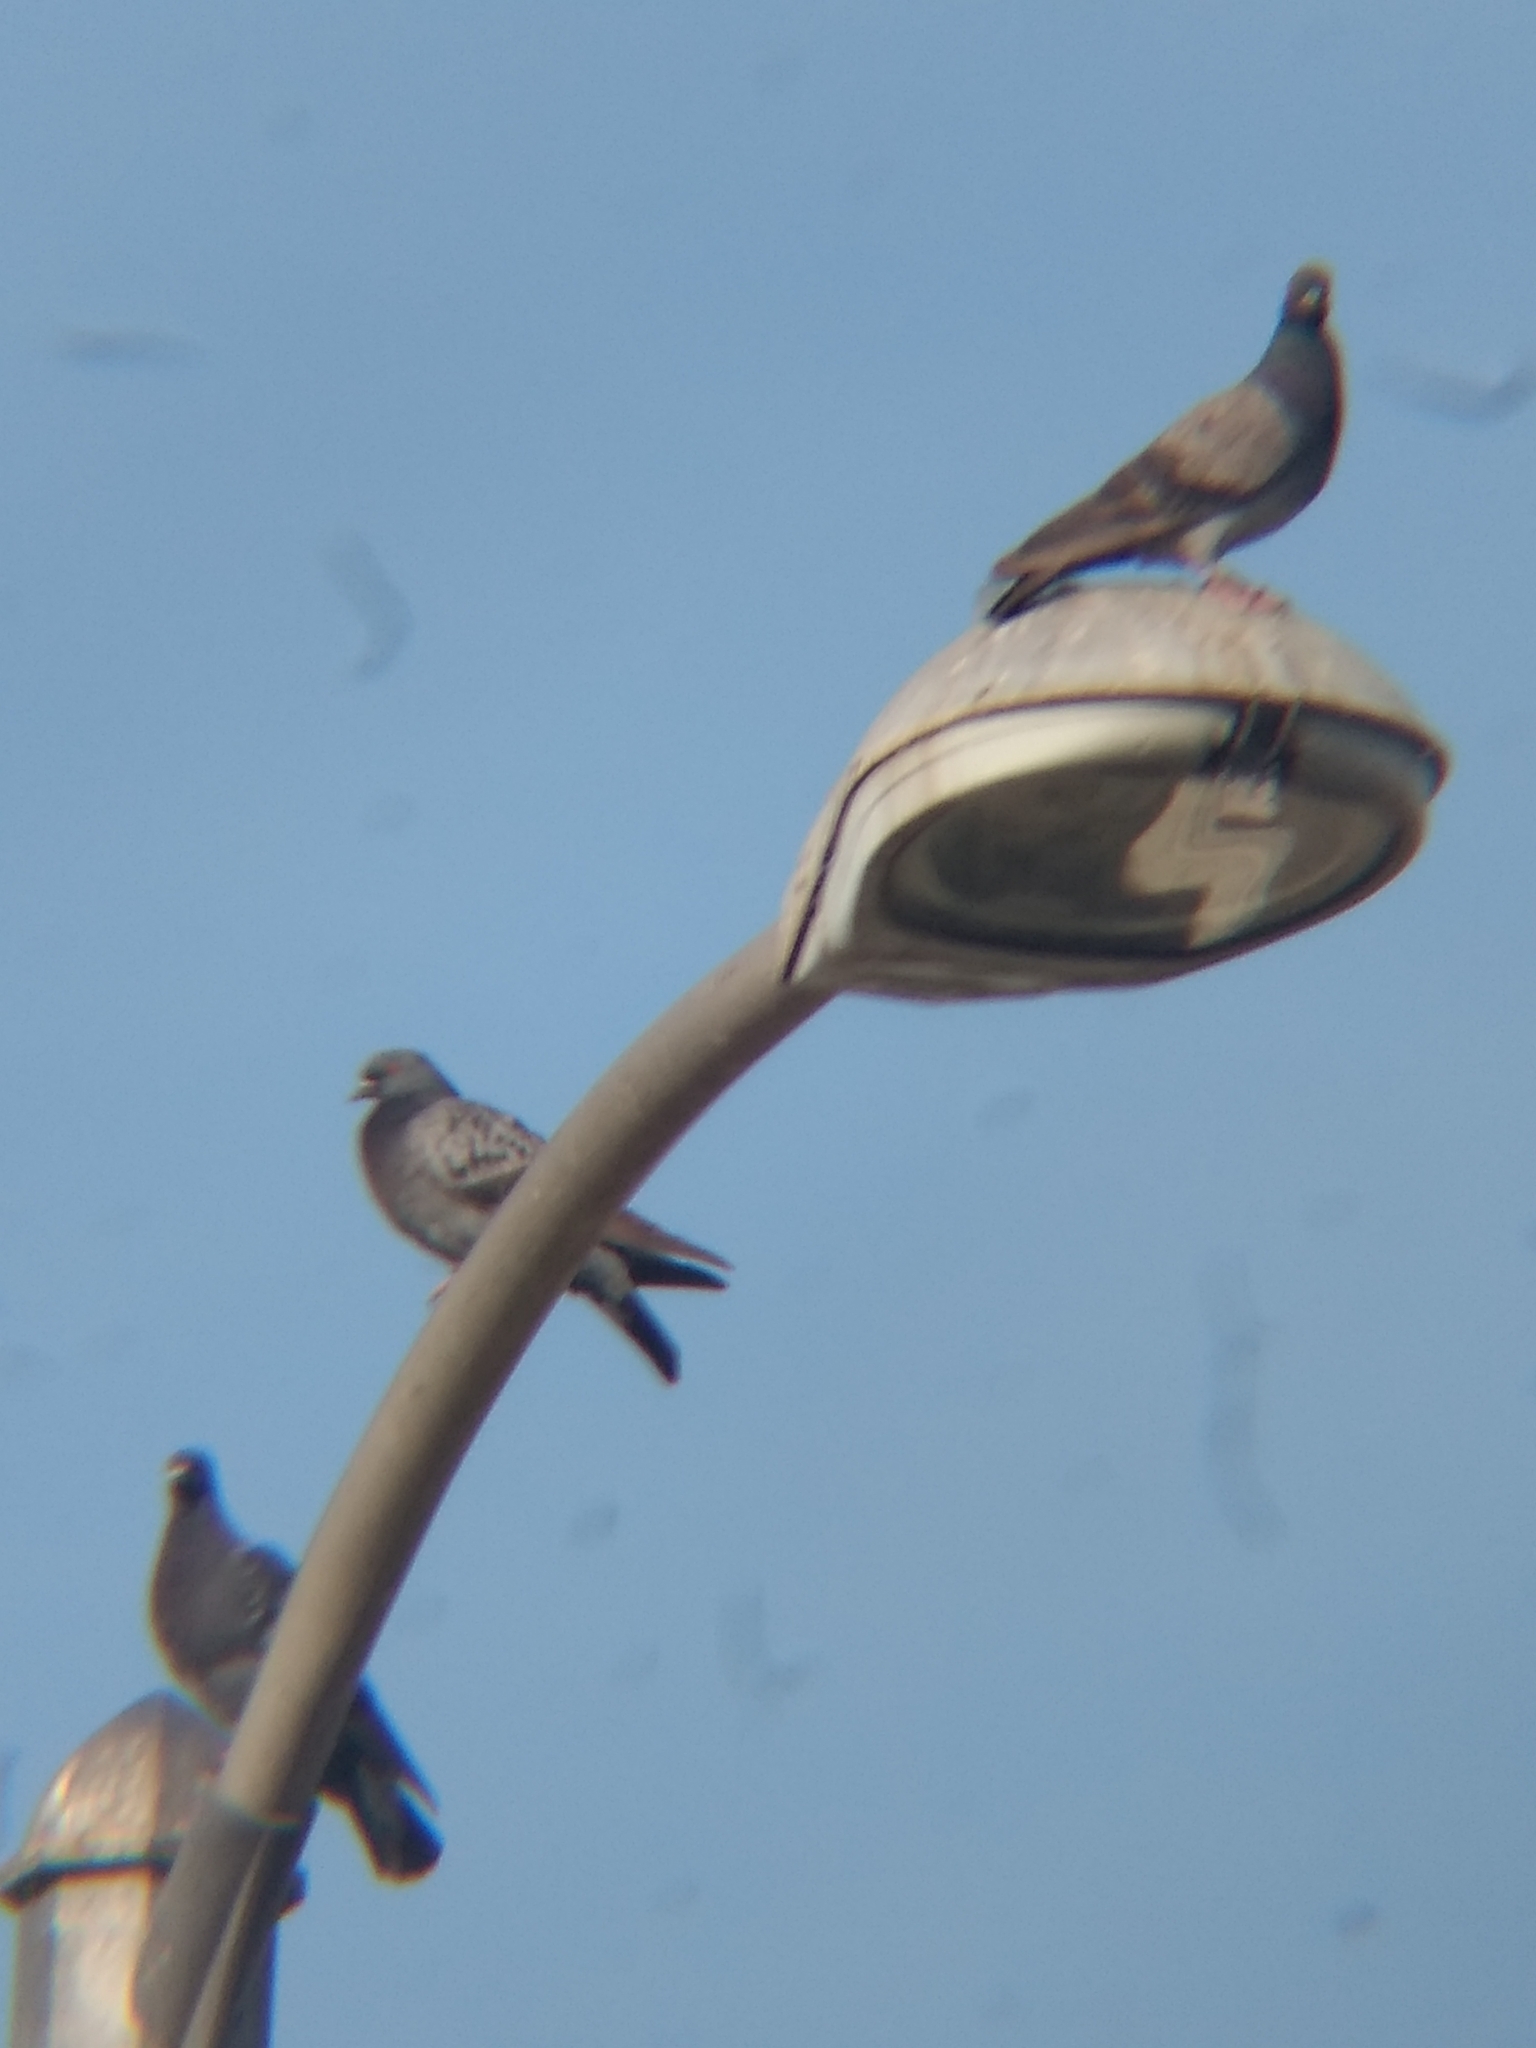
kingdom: Animalia
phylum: Chordata
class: Aves
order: Columbiformes
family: Columbidae
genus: Columba
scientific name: Columba livia
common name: Rock pigeon
